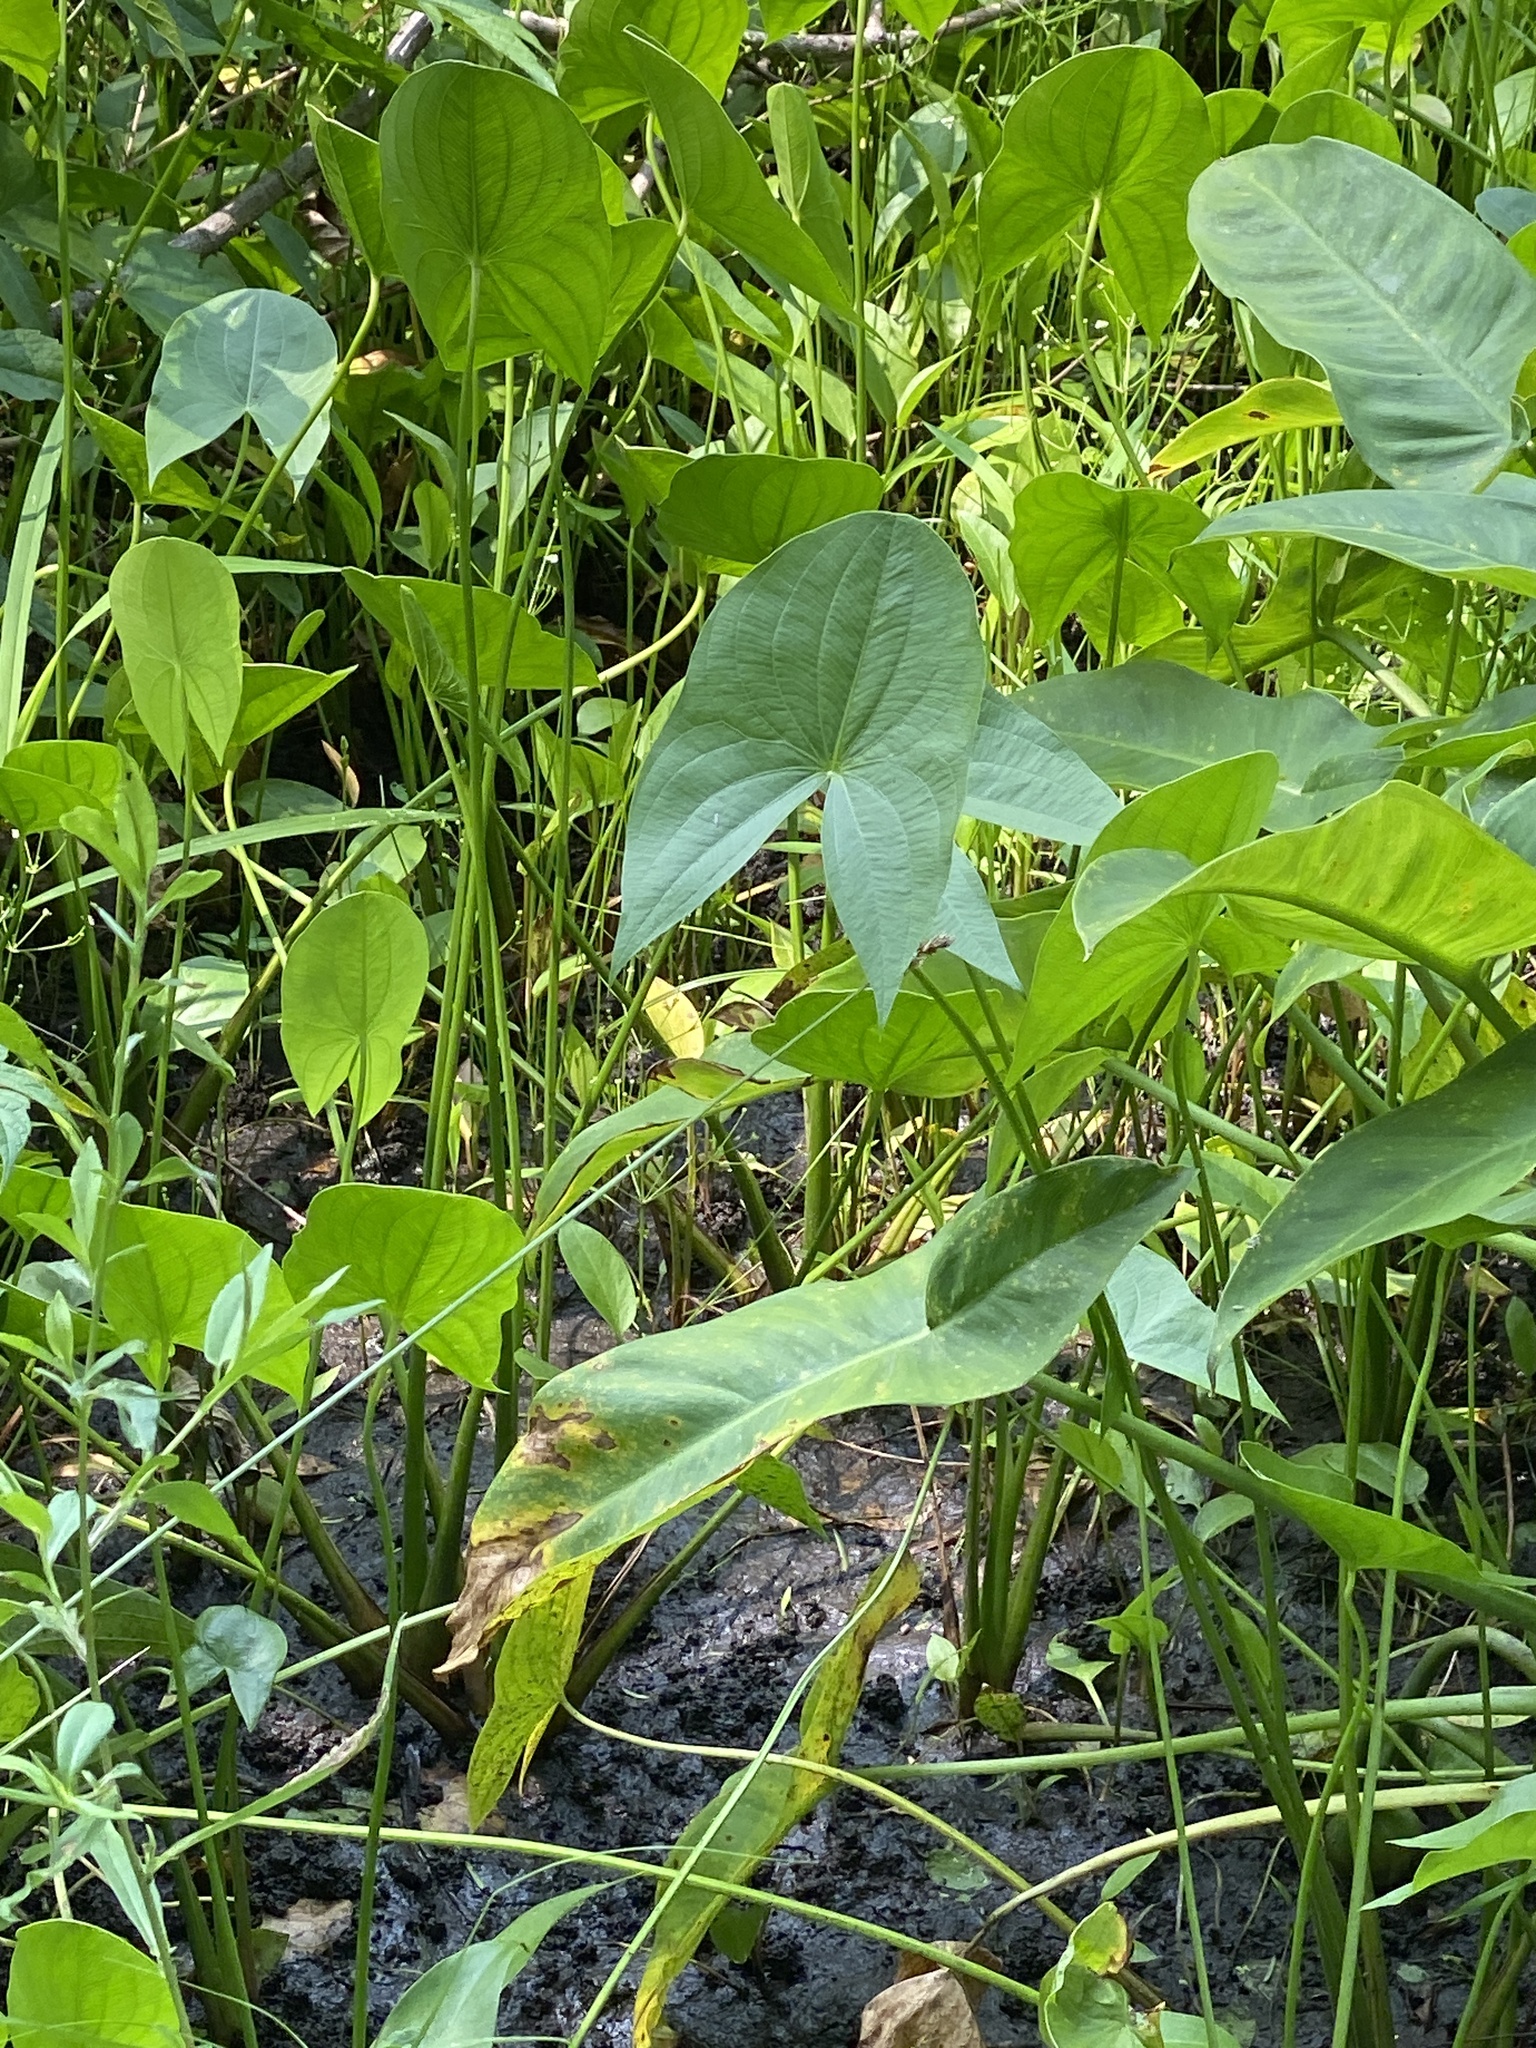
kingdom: Plantae
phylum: Tracheophyta
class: Liliopsida
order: Alismatales
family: Alismataceae
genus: Sagittaria
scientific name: Sagittaria latifolia
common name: Duck-potato
